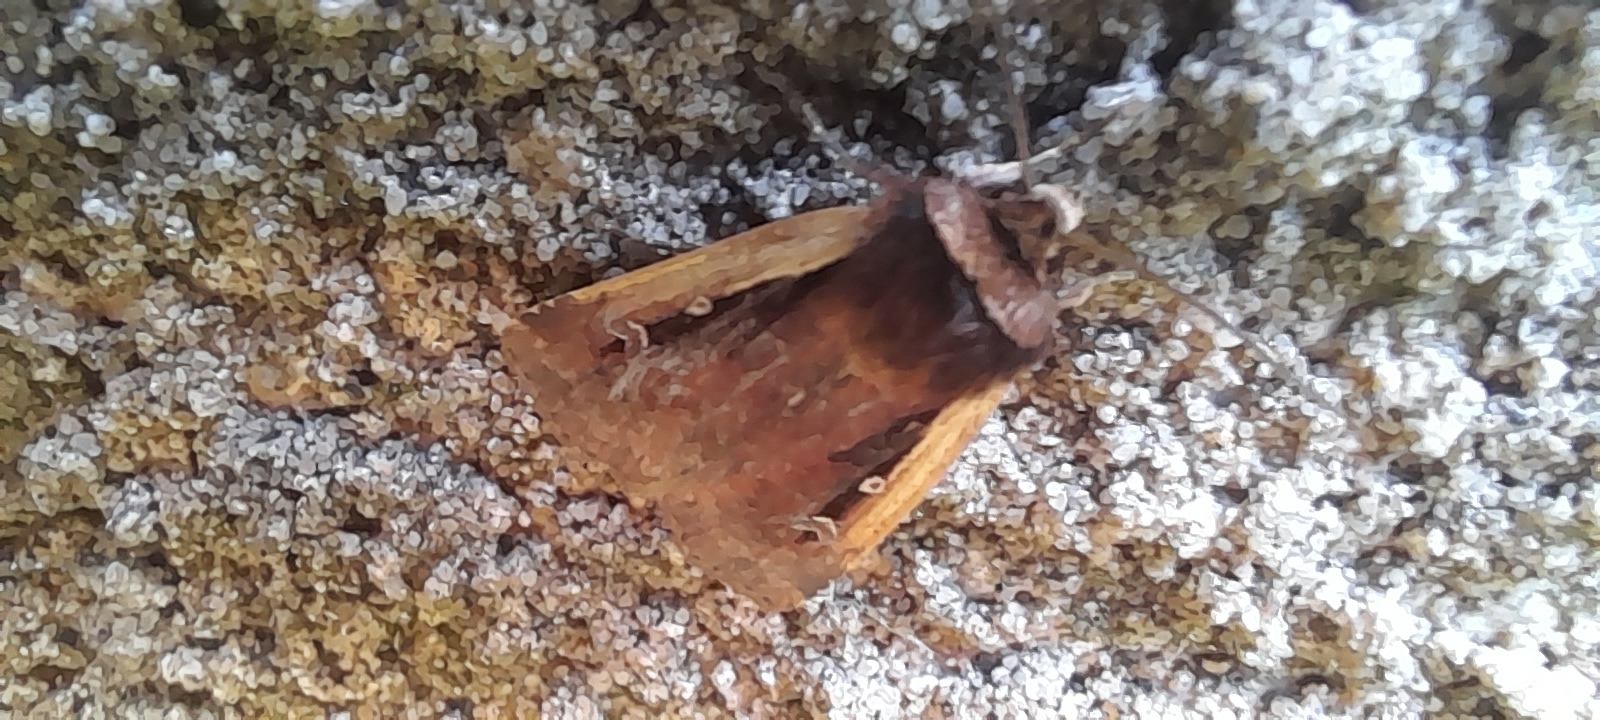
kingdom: Animalia
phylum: Arthropoda
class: Insecta
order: Lepidoptera
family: Noctuidae
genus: Ochropleura
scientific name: Ochropleura plecta
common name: Flame shoulder
